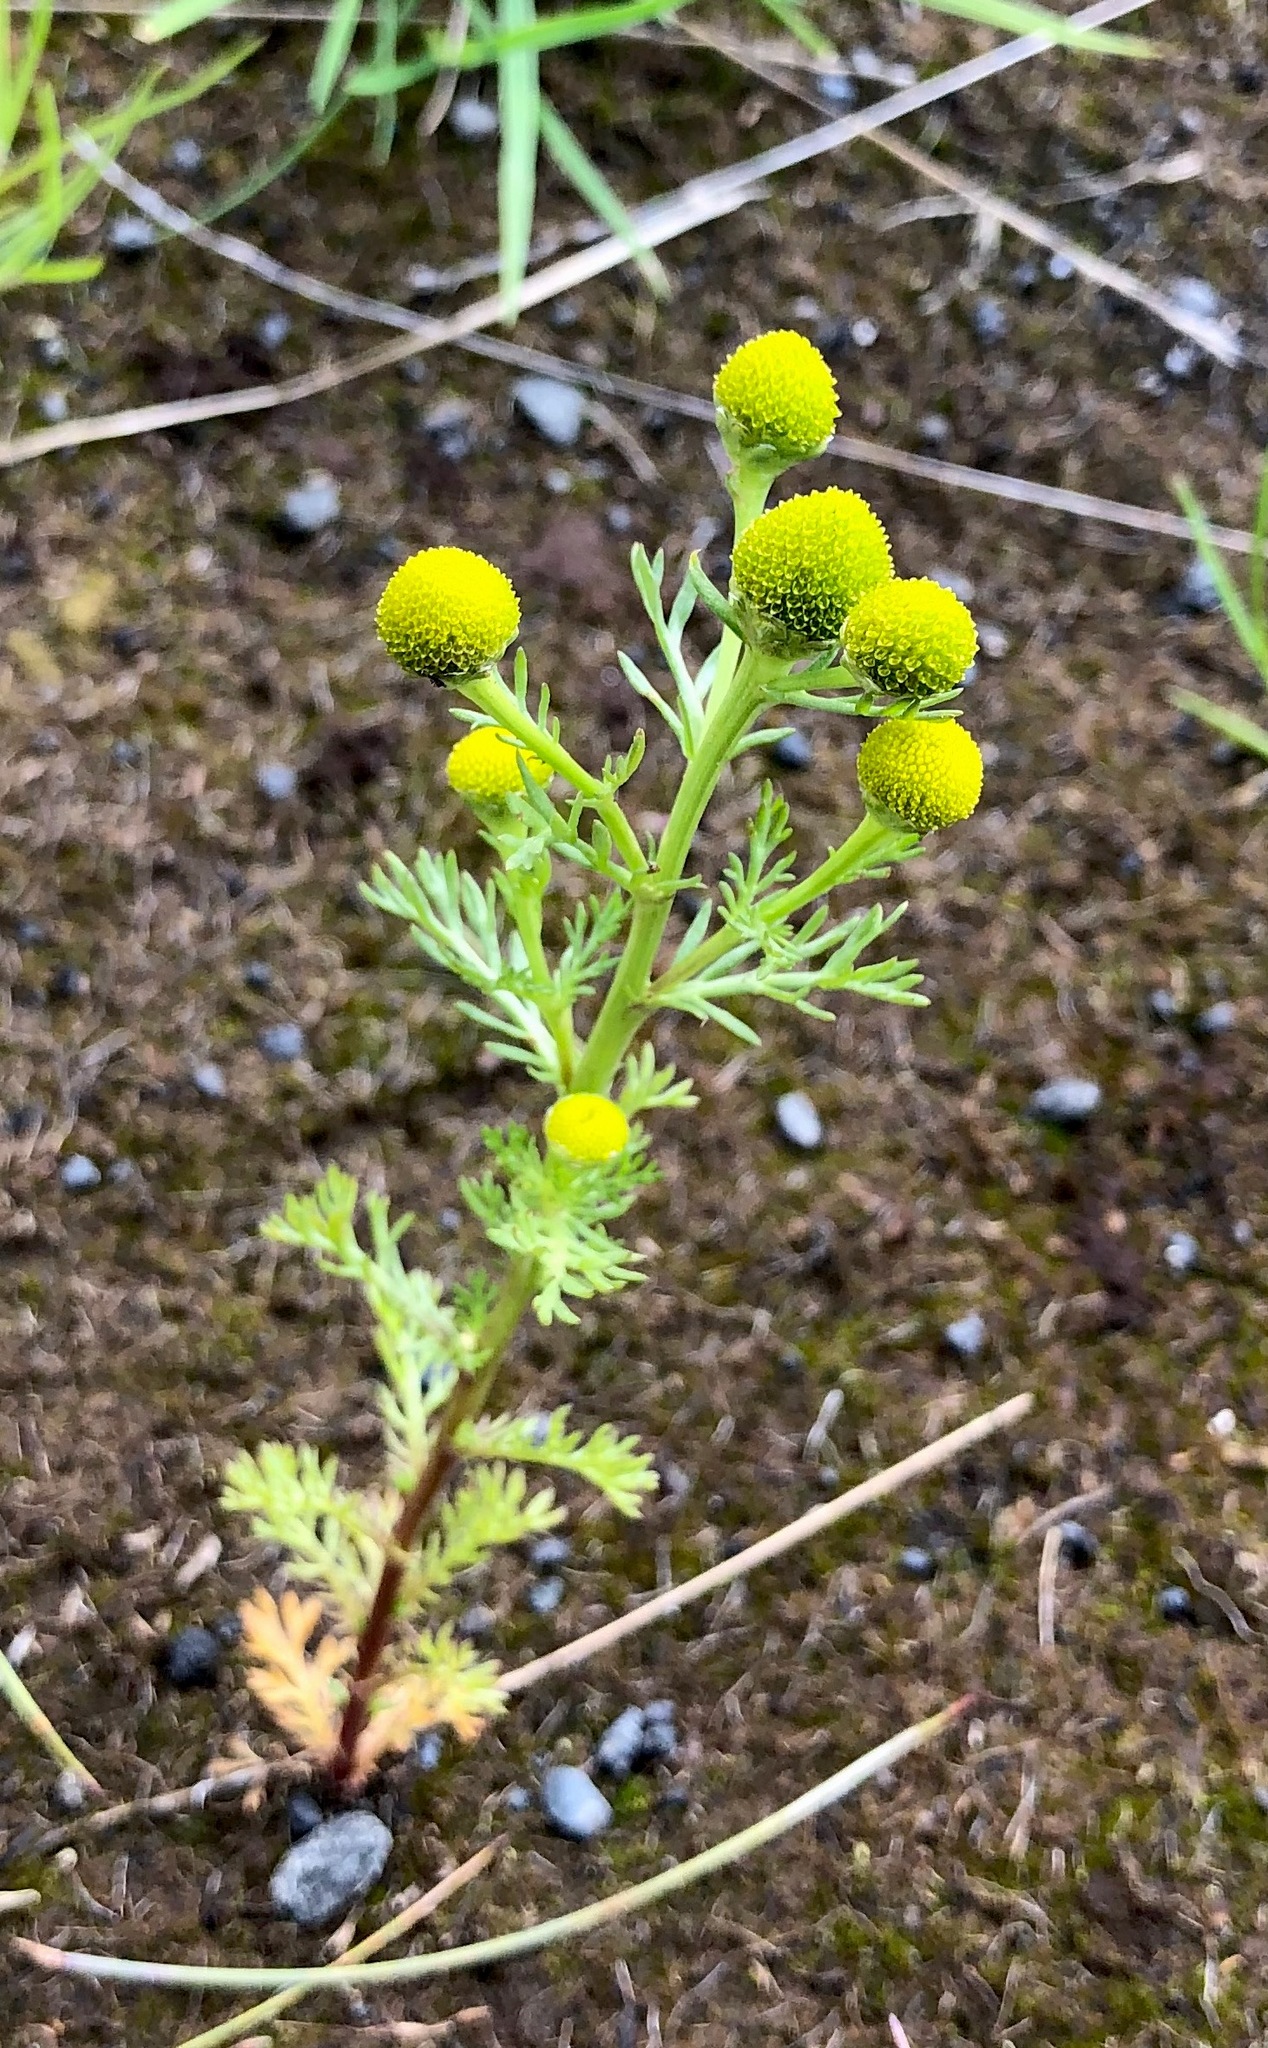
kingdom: Plantae
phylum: Tracheophyta
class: Magnoliopsida
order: Asterales
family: Asteraceae
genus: Matricaria
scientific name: Matricaria discoidea
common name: Disc mayweed
